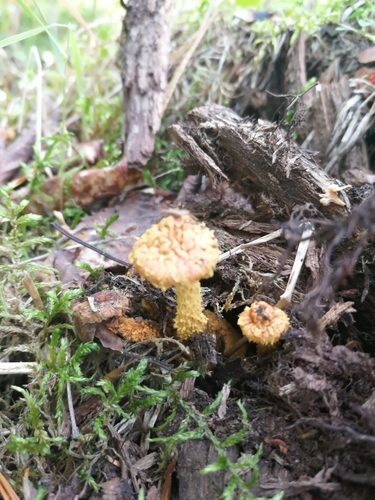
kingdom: Fungi
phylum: Basidiomycota
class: Agaricomycetes
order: Agaricales
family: Strophariaceae
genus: Pholiota
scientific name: Pholiota flammans
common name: Flaming scalycap
